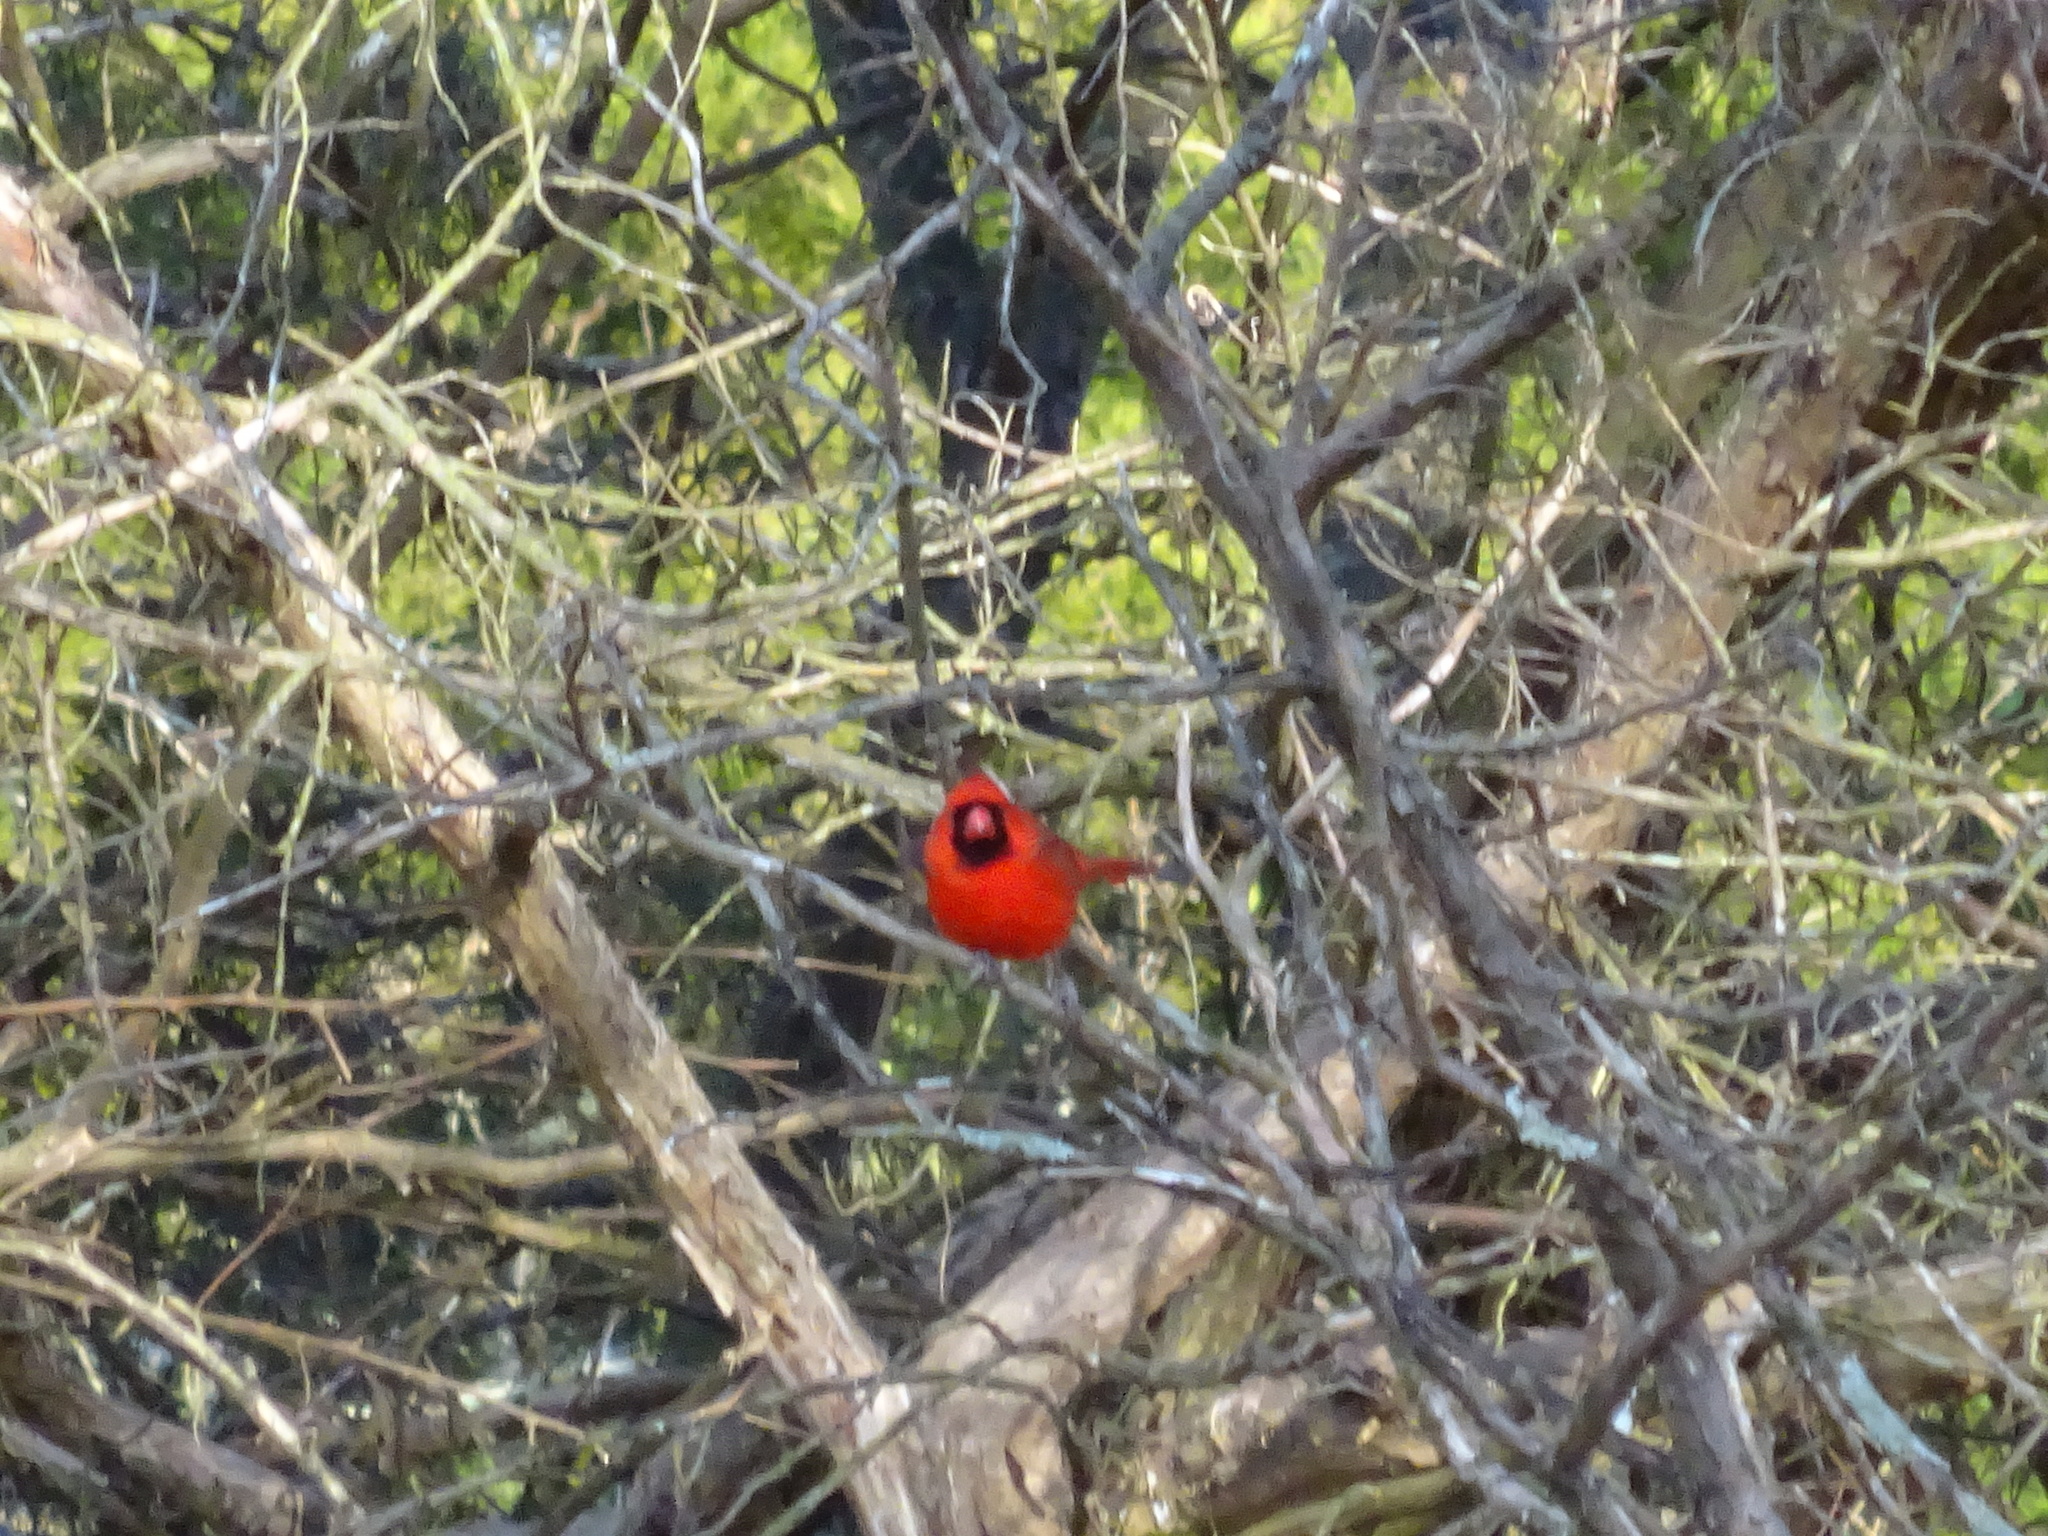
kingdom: Animalia
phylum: Chordata
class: Aves
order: Passeriformes
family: Cardinalidae
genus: Cardinalis
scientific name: Cardinalis cardinalis
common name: Northern cardinal
